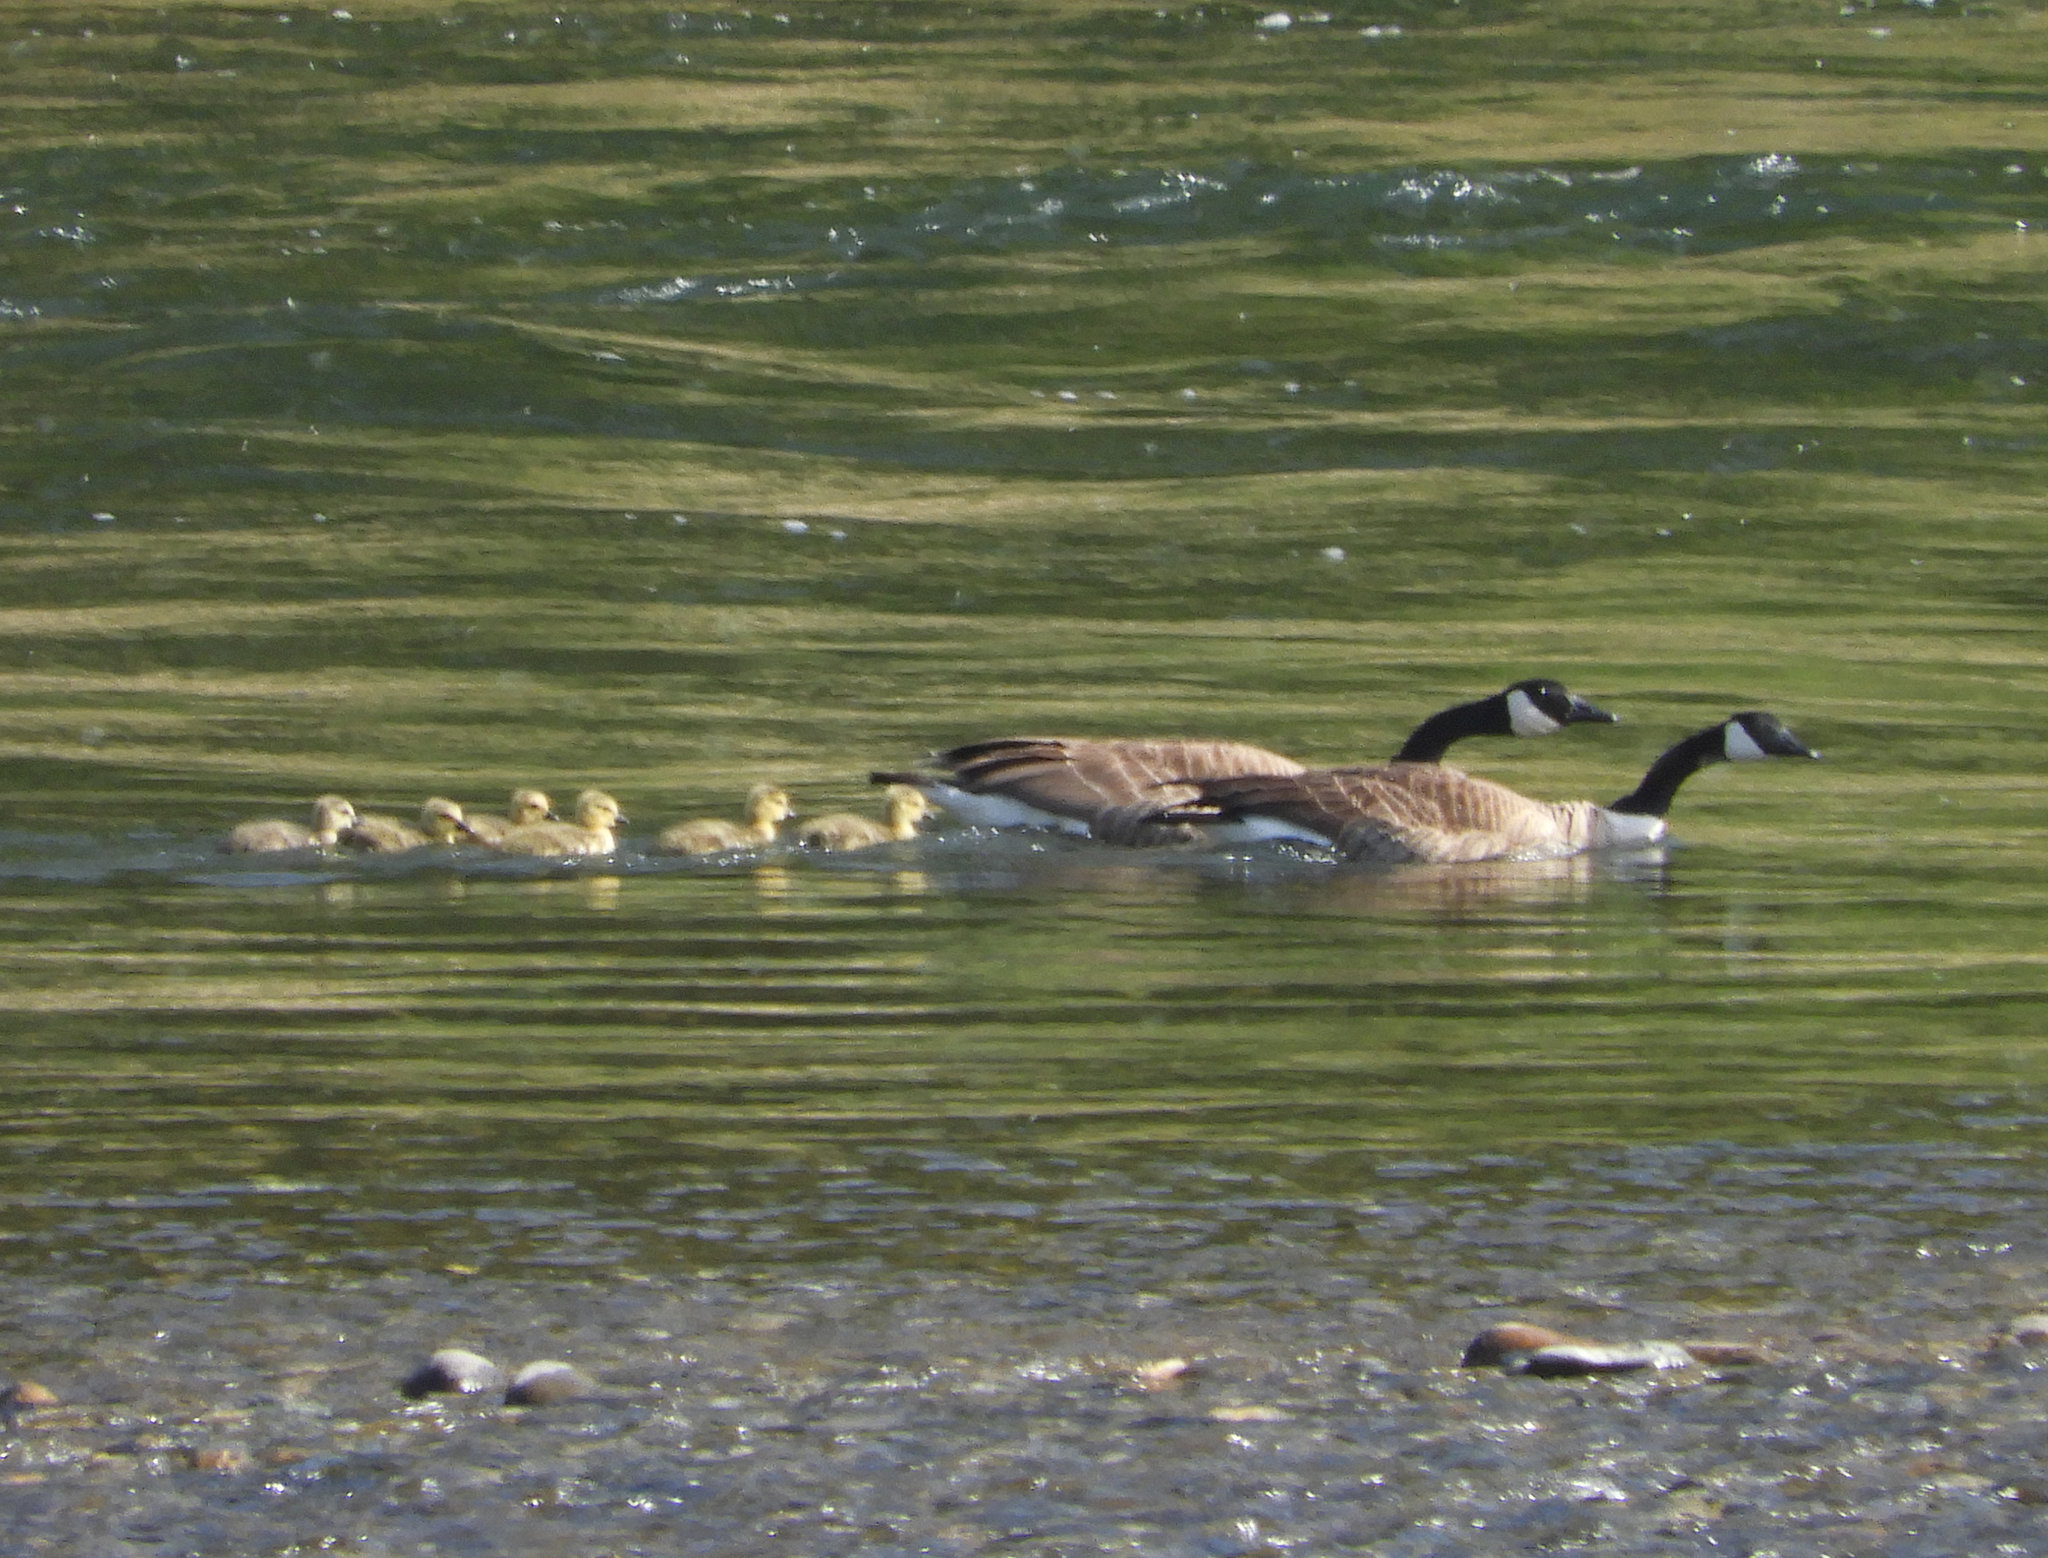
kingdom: Animalia
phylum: Chordata
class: Aves
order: Anseriformes
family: Anatidae
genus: Branta
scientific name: Branta canadensis
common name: Canada goose
